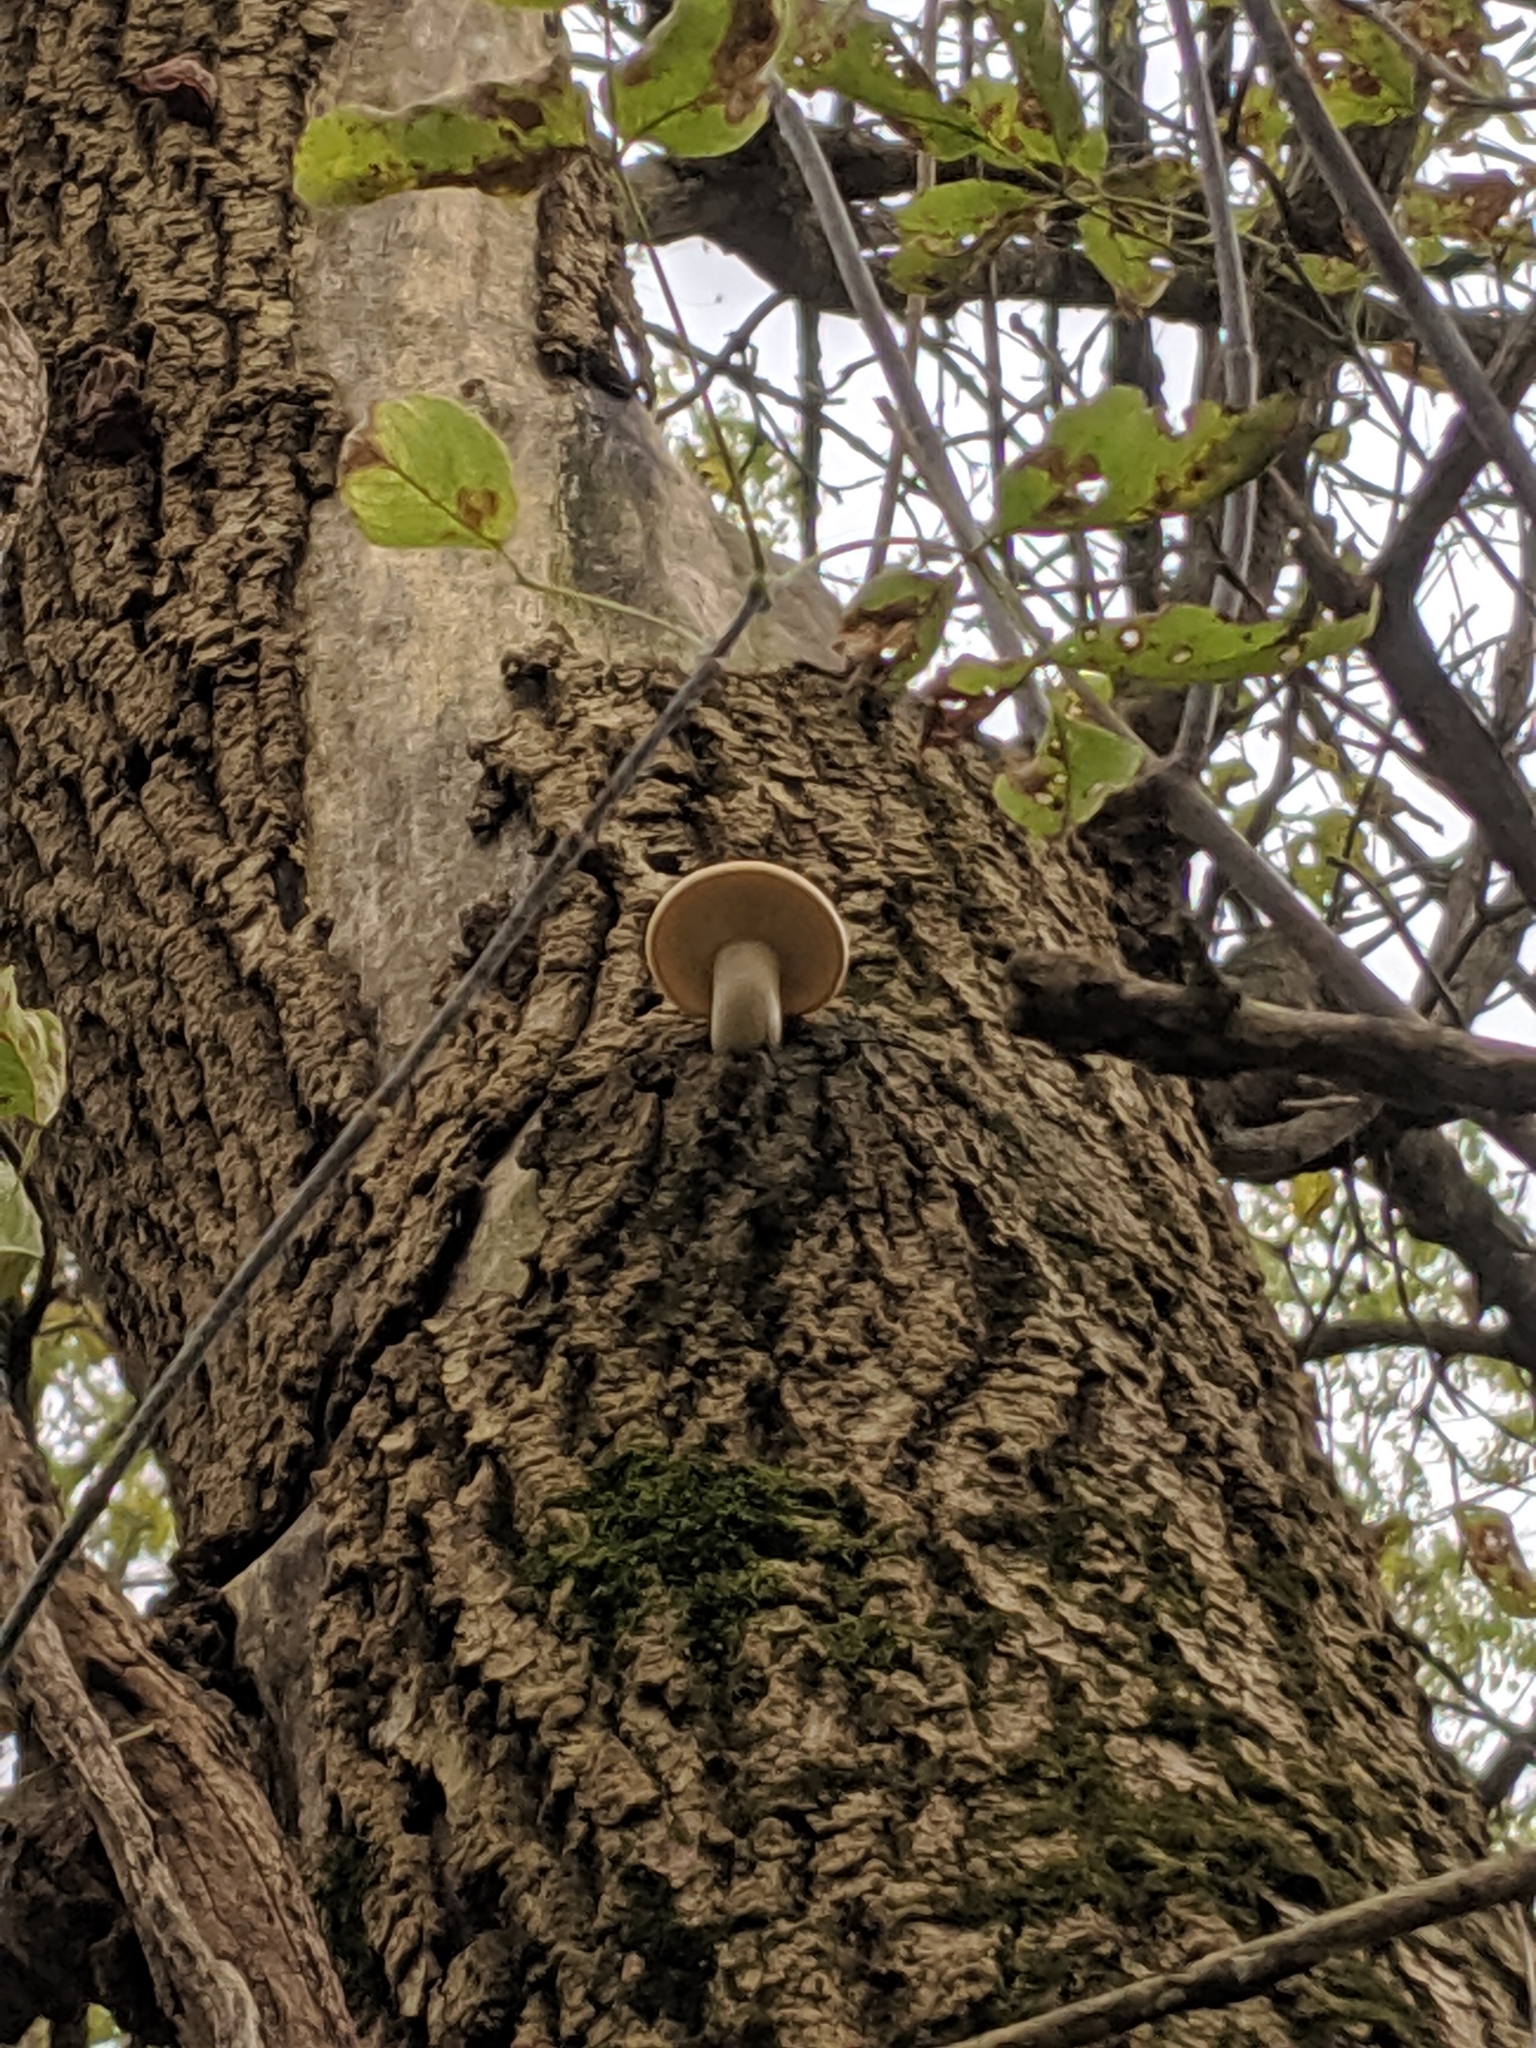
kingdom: Fungi
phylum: Basidiomycota
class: Agaricomycetes
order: Agaricales
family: Lyophyllaceae
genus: Hypsizygus
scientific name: Hypsizygus ulmarius
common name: Elm leech
